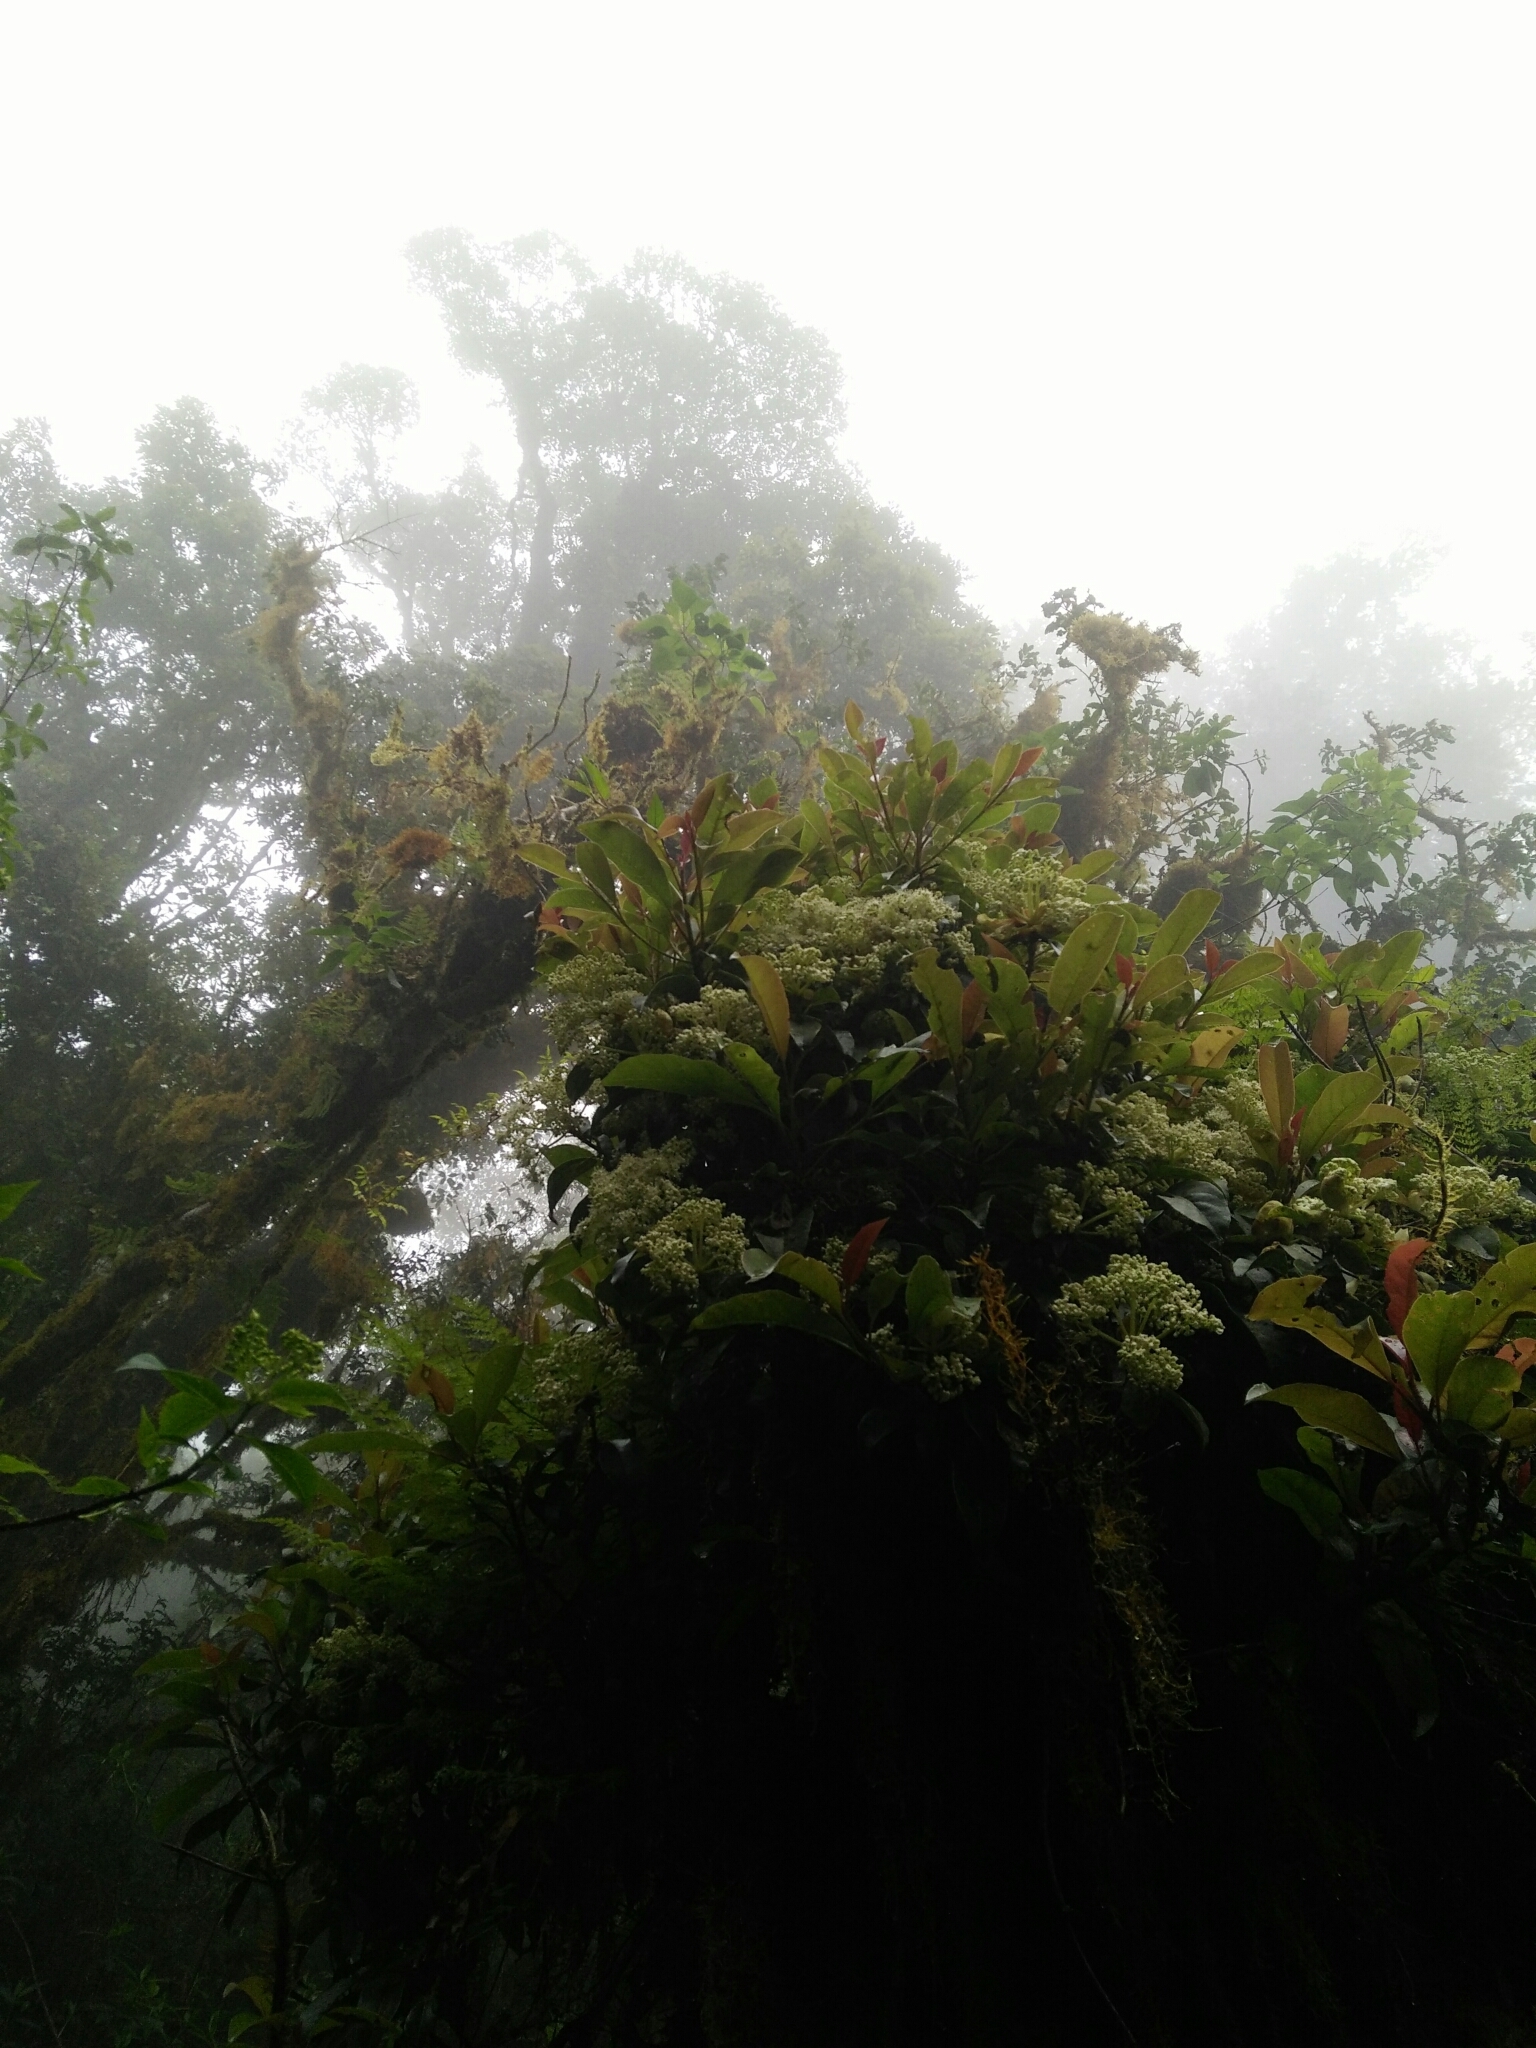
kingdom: Plantae
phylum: Tracheophyta
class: Magnoliopsida
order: Cornales
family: Hydrangeaceae
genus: Hydrangea
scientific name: Hydrangea integrifolia
